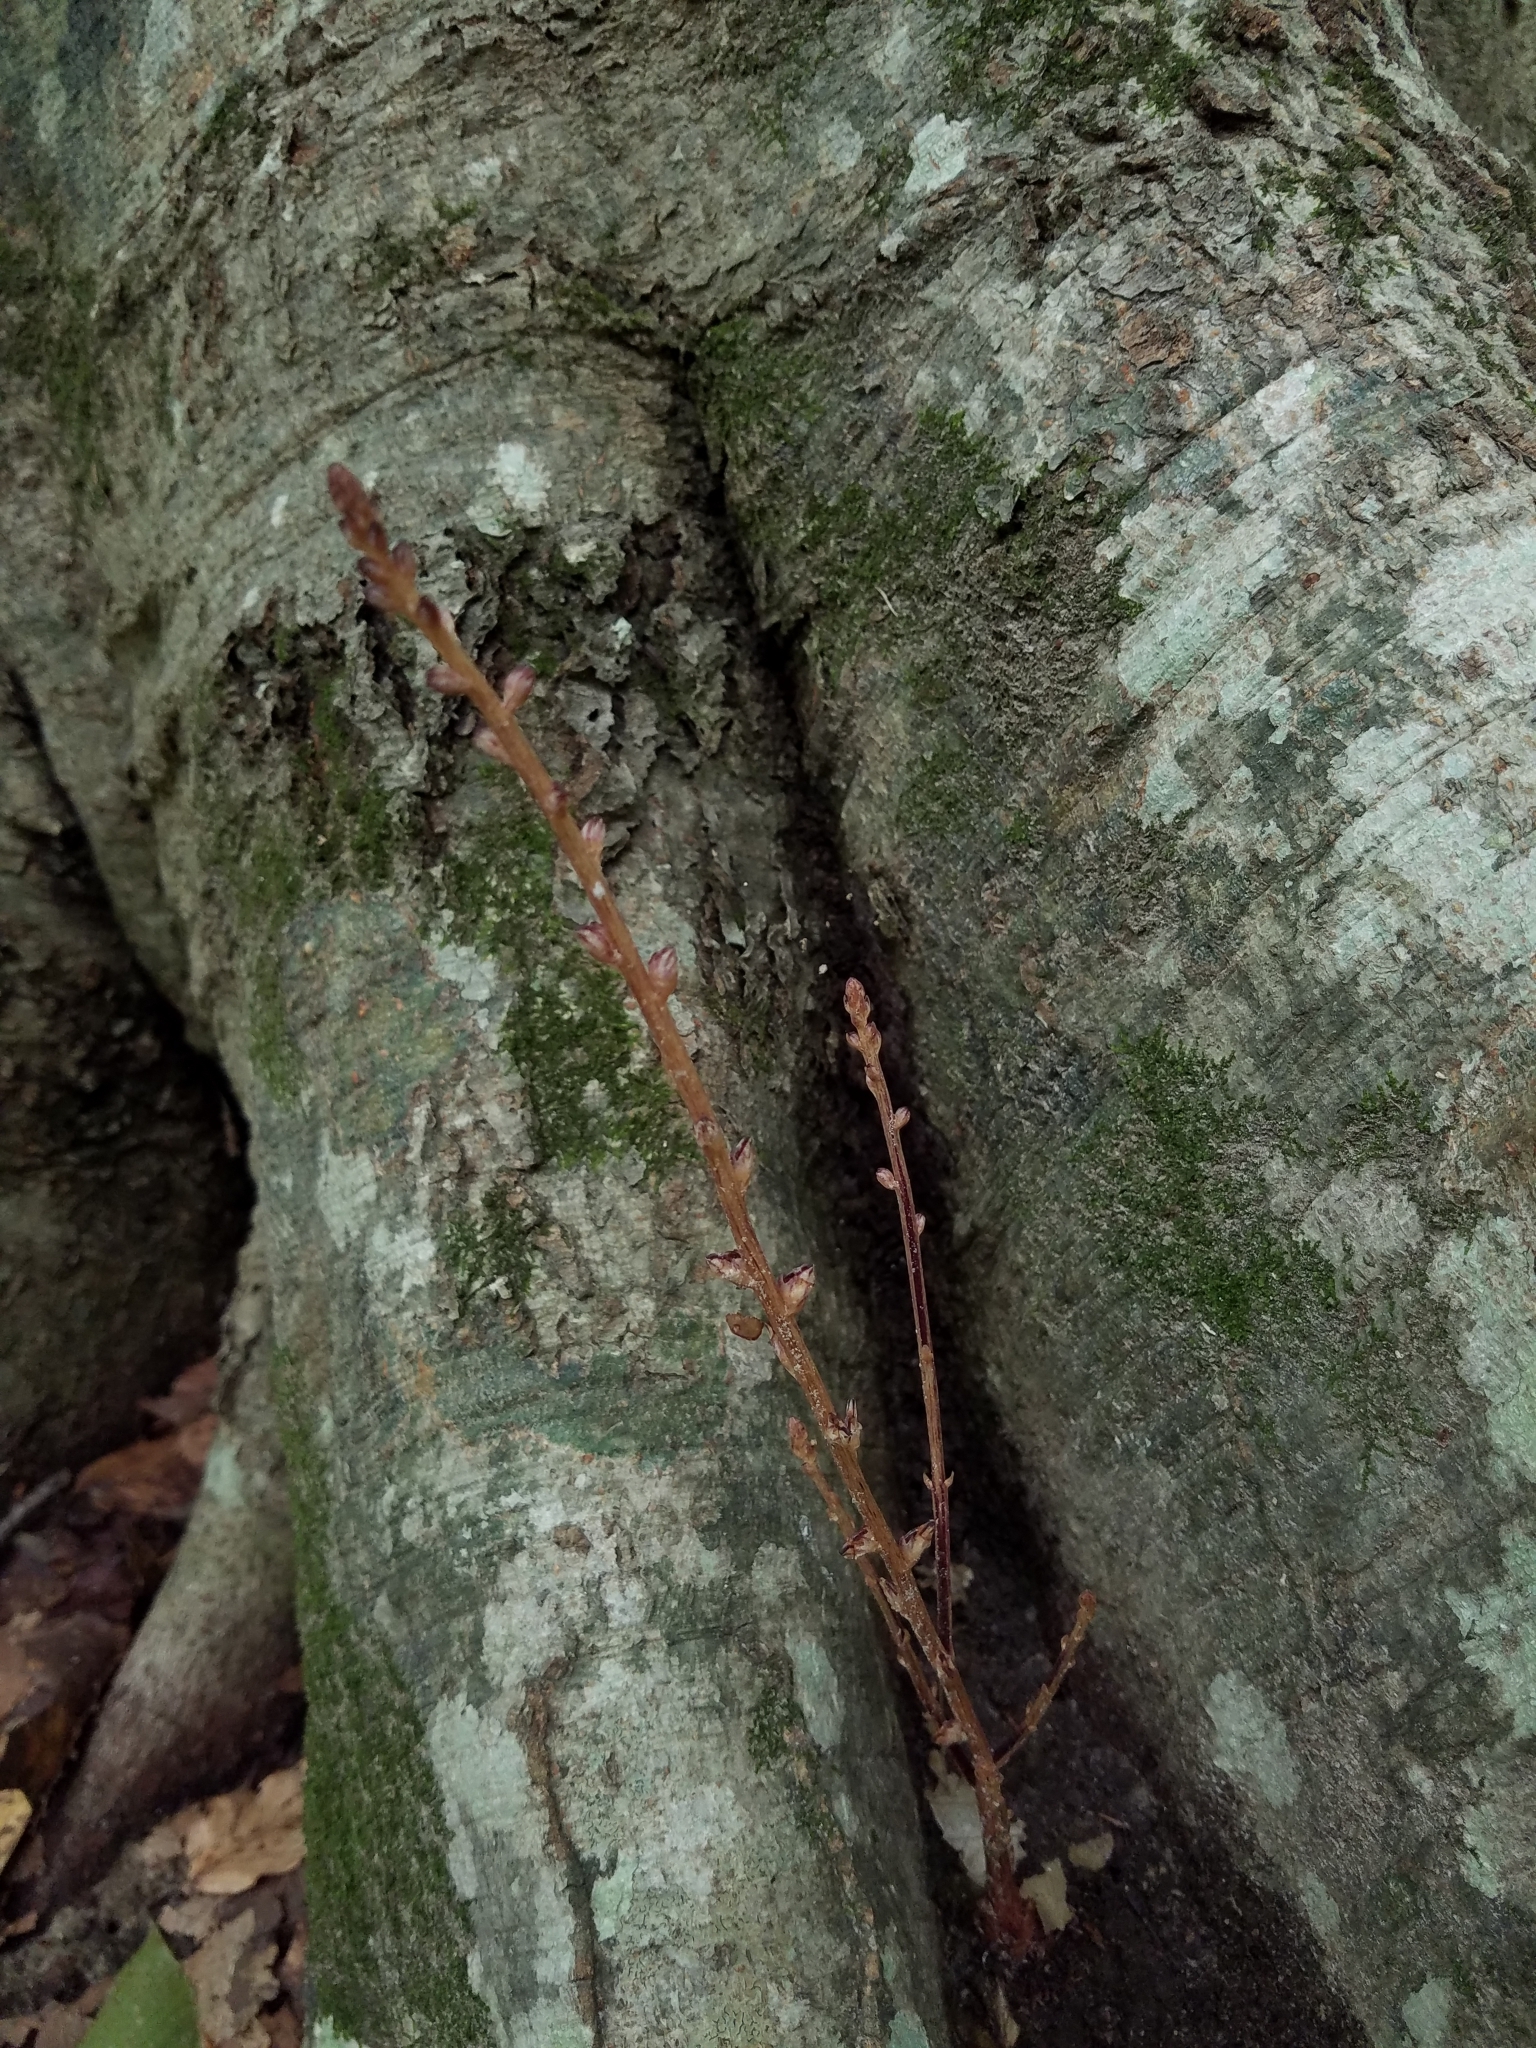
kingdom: Plantae
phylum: Tracheophyta
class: Magnoliopsida
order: Lamiales
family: Orobanchaceae
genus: Epifagus
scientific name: Epifagus virginiana
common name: Beechdrops
